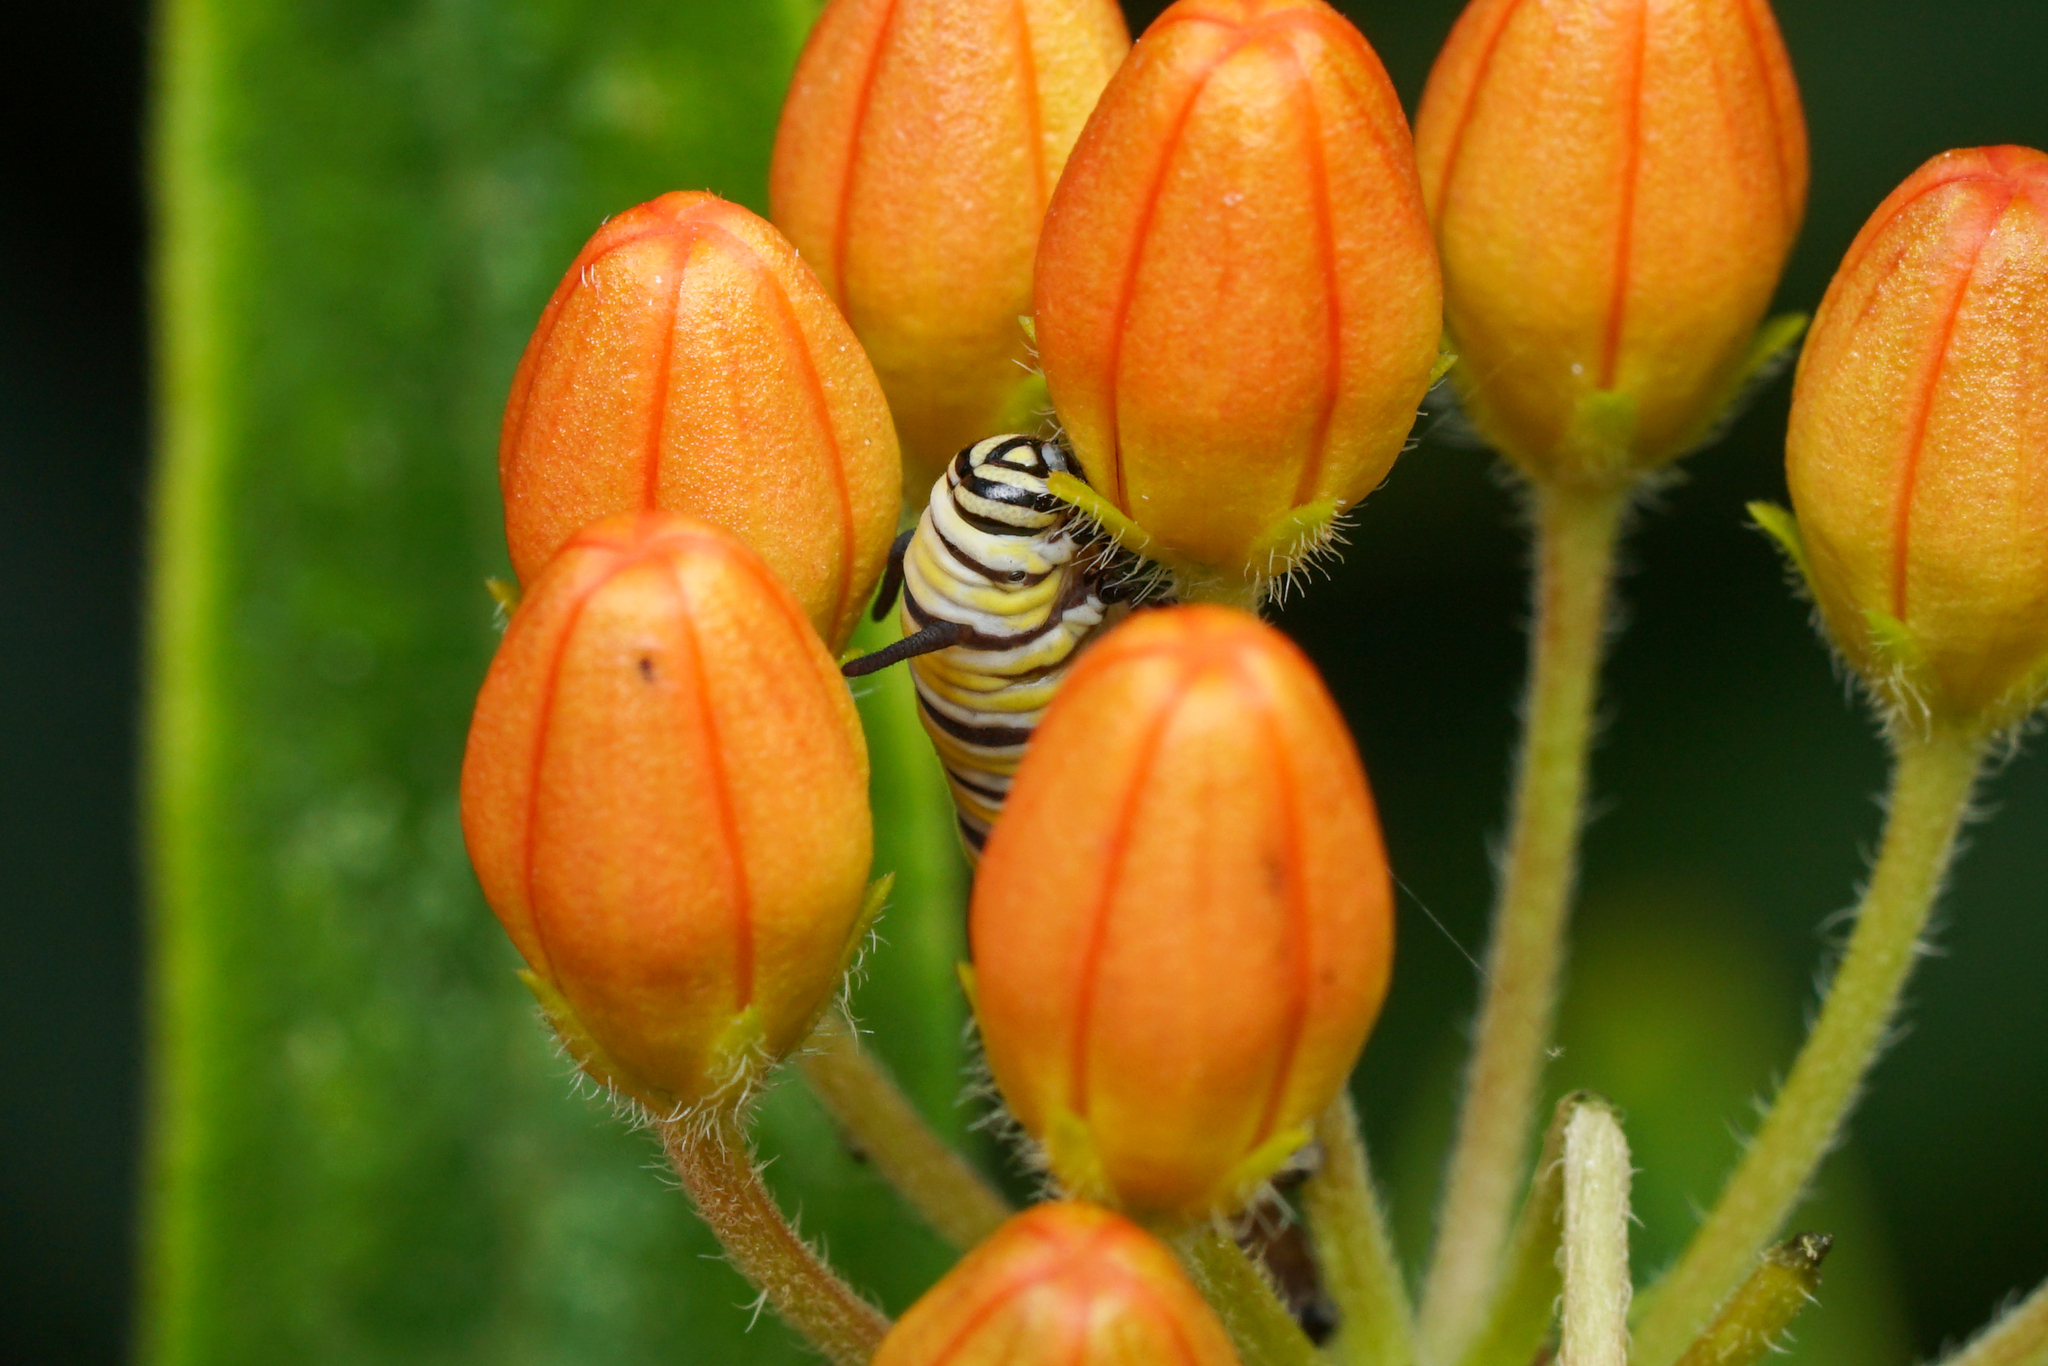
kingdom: Animalia
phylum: Arthropoda
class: Insecta
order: Lepidoptera
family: Nymphalidae
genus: Danaus
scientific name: Danaus plexippus
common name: Monarch
